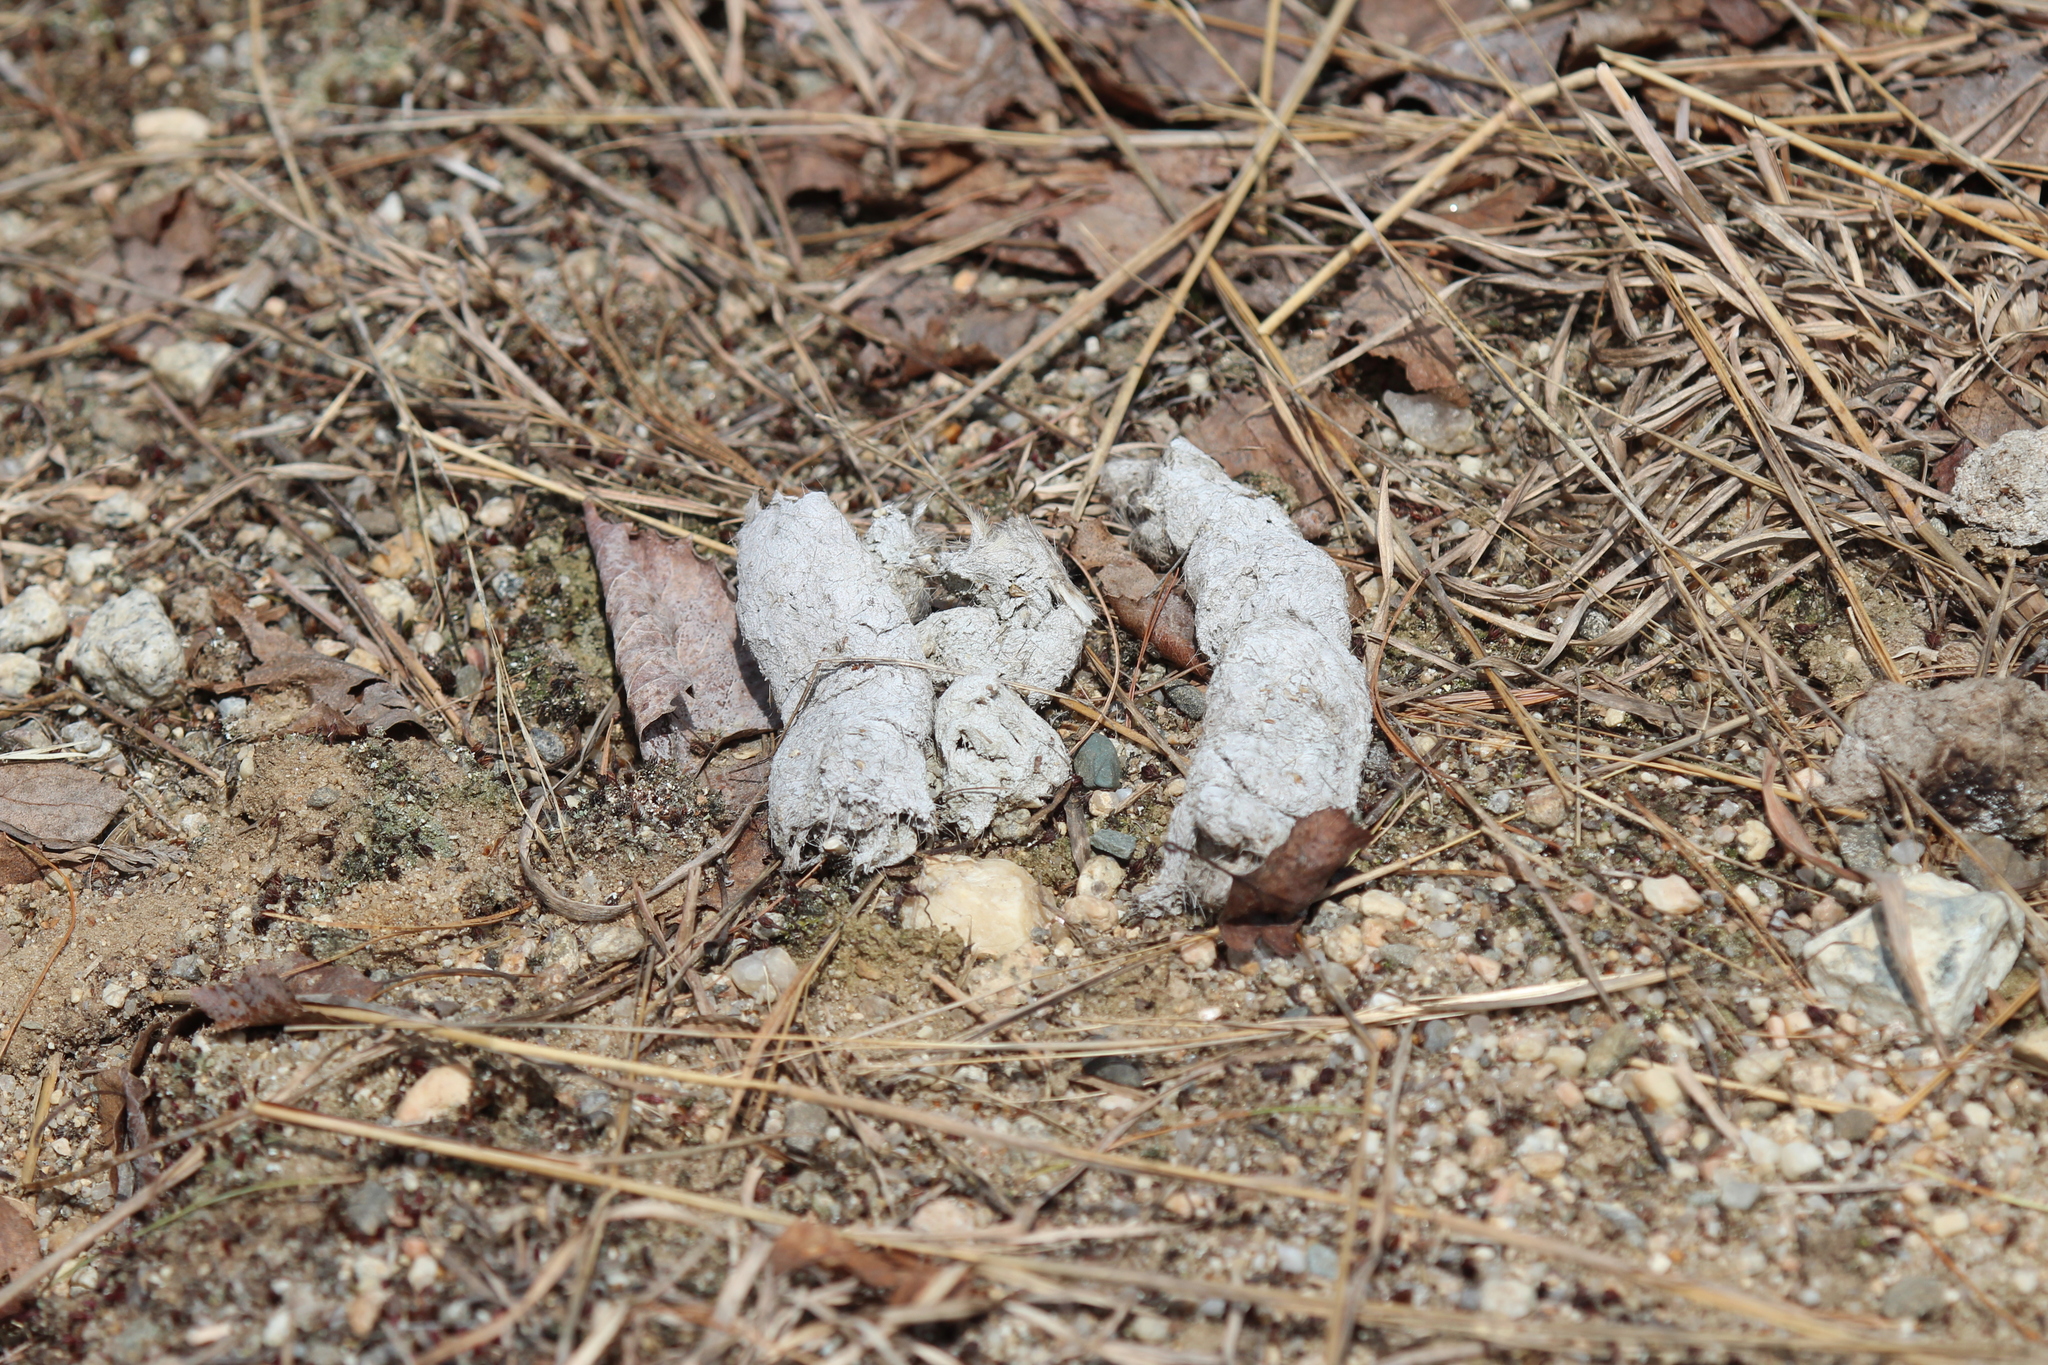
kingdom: Animalia
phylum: Chordata
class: Mammalia
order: Carnivora
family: Canidae
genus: Canis
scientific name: Canis latrans
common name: Coyote
